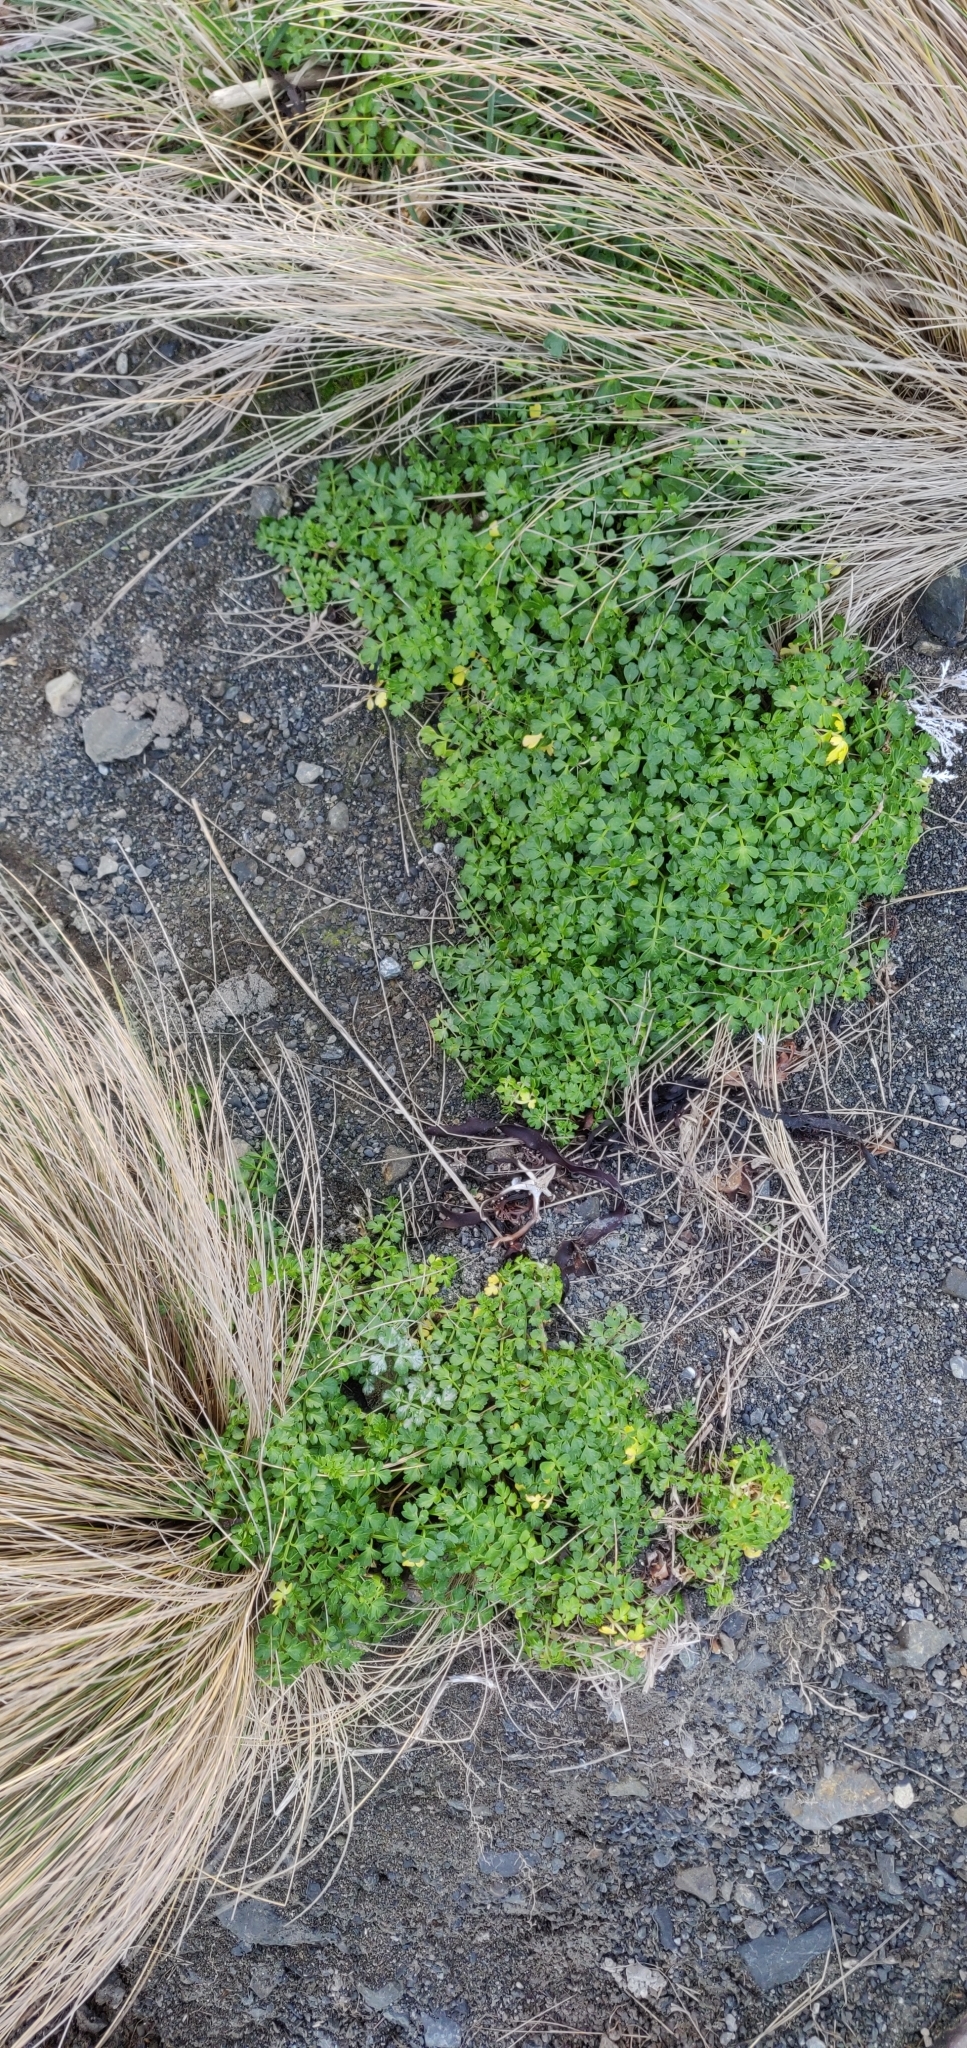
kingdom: Plantae
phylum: Tracheophyta
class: Magnoliopsida
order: Apiales
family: Apiaceae
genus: Apium
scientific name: Apium prostratum
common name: Prostrate marshwort
